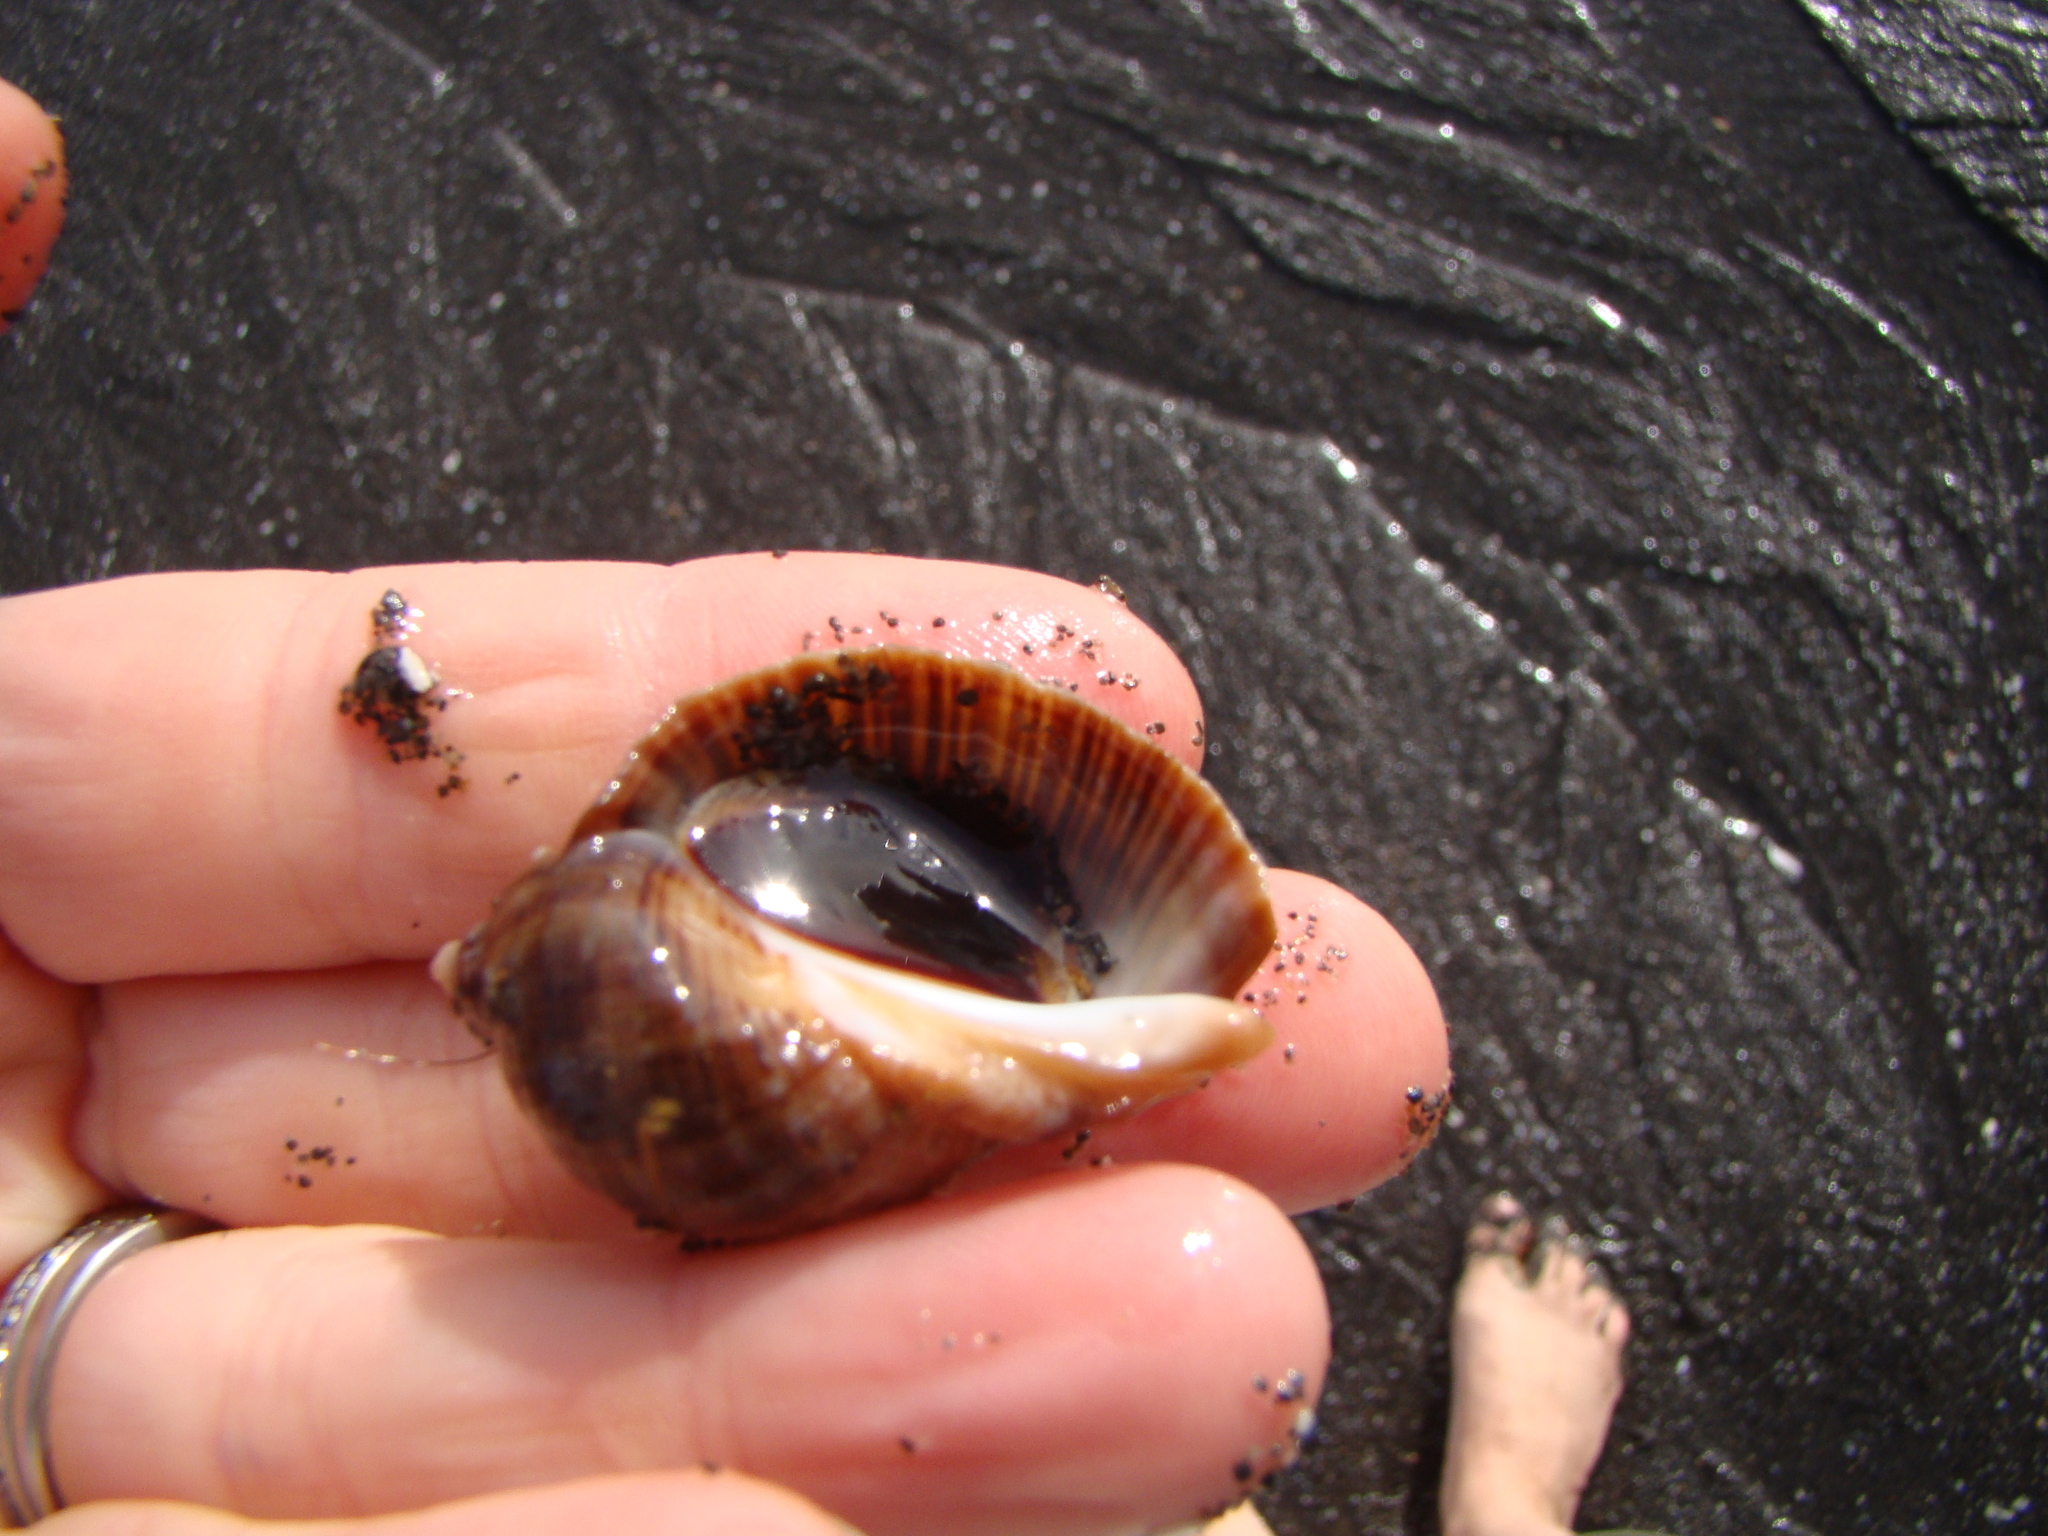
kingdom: Animalia
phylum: Mollusca
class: Gastropoda
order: Neogastropoda
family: Muricidae
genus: Dicathais
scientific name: Dicathais orbita
